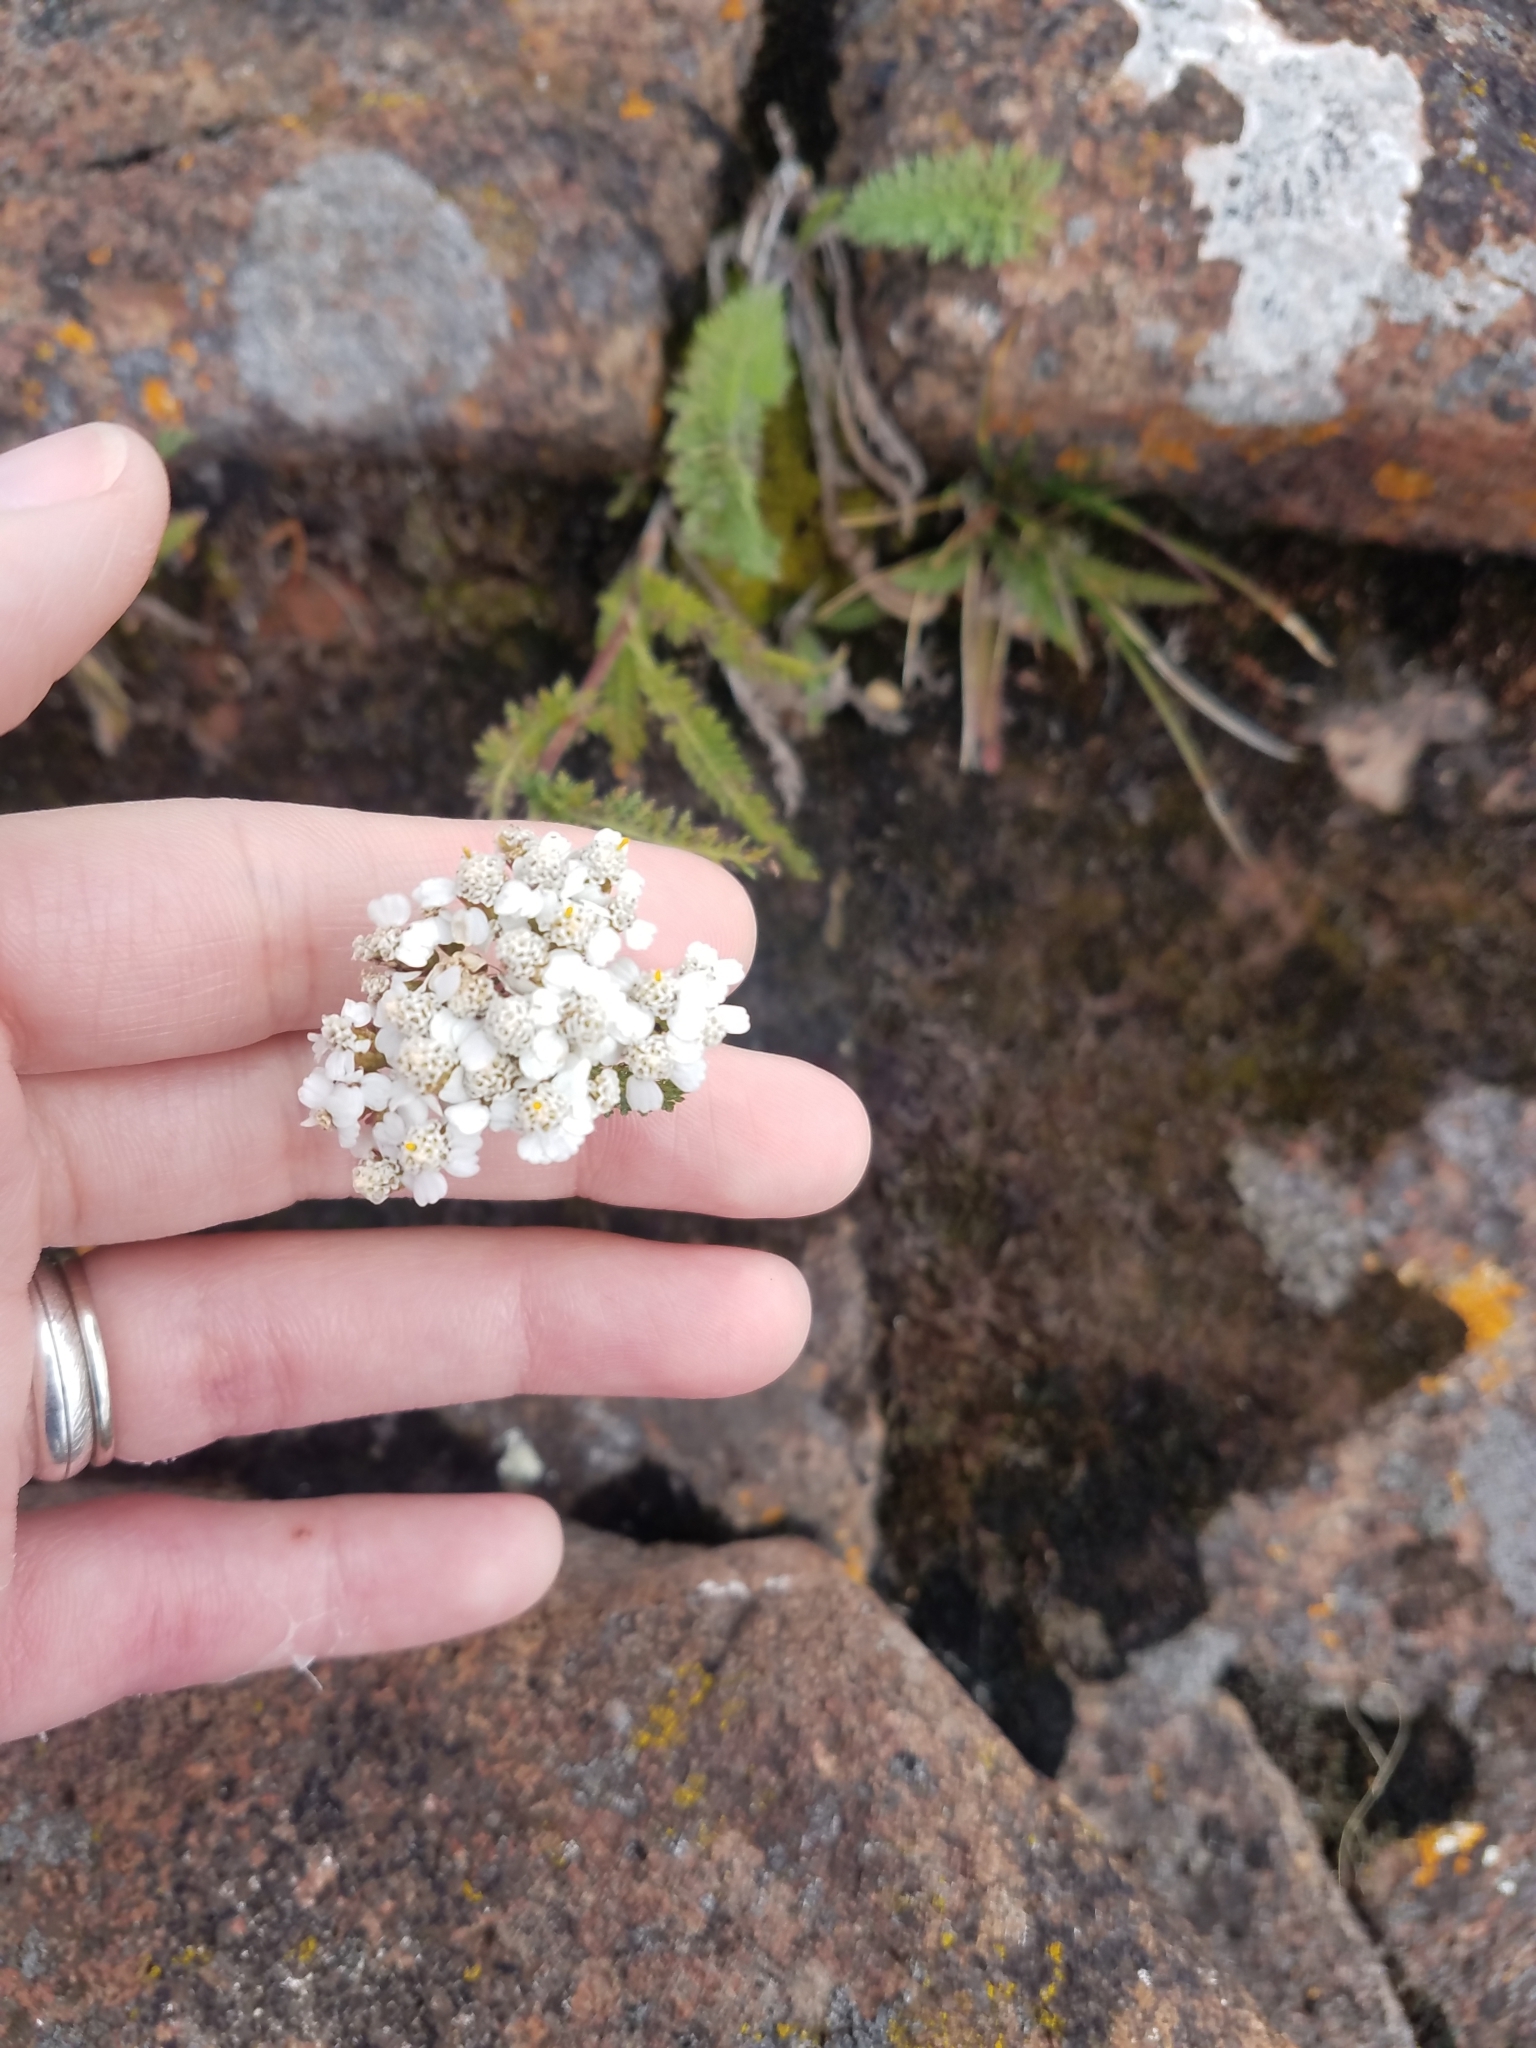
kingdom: Plantae
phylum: Tracheophyta
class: Magnoliopsida
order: Asterales
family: Asteraceae
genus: Achillea
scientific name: Achillea millefolium
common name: Yarrow
